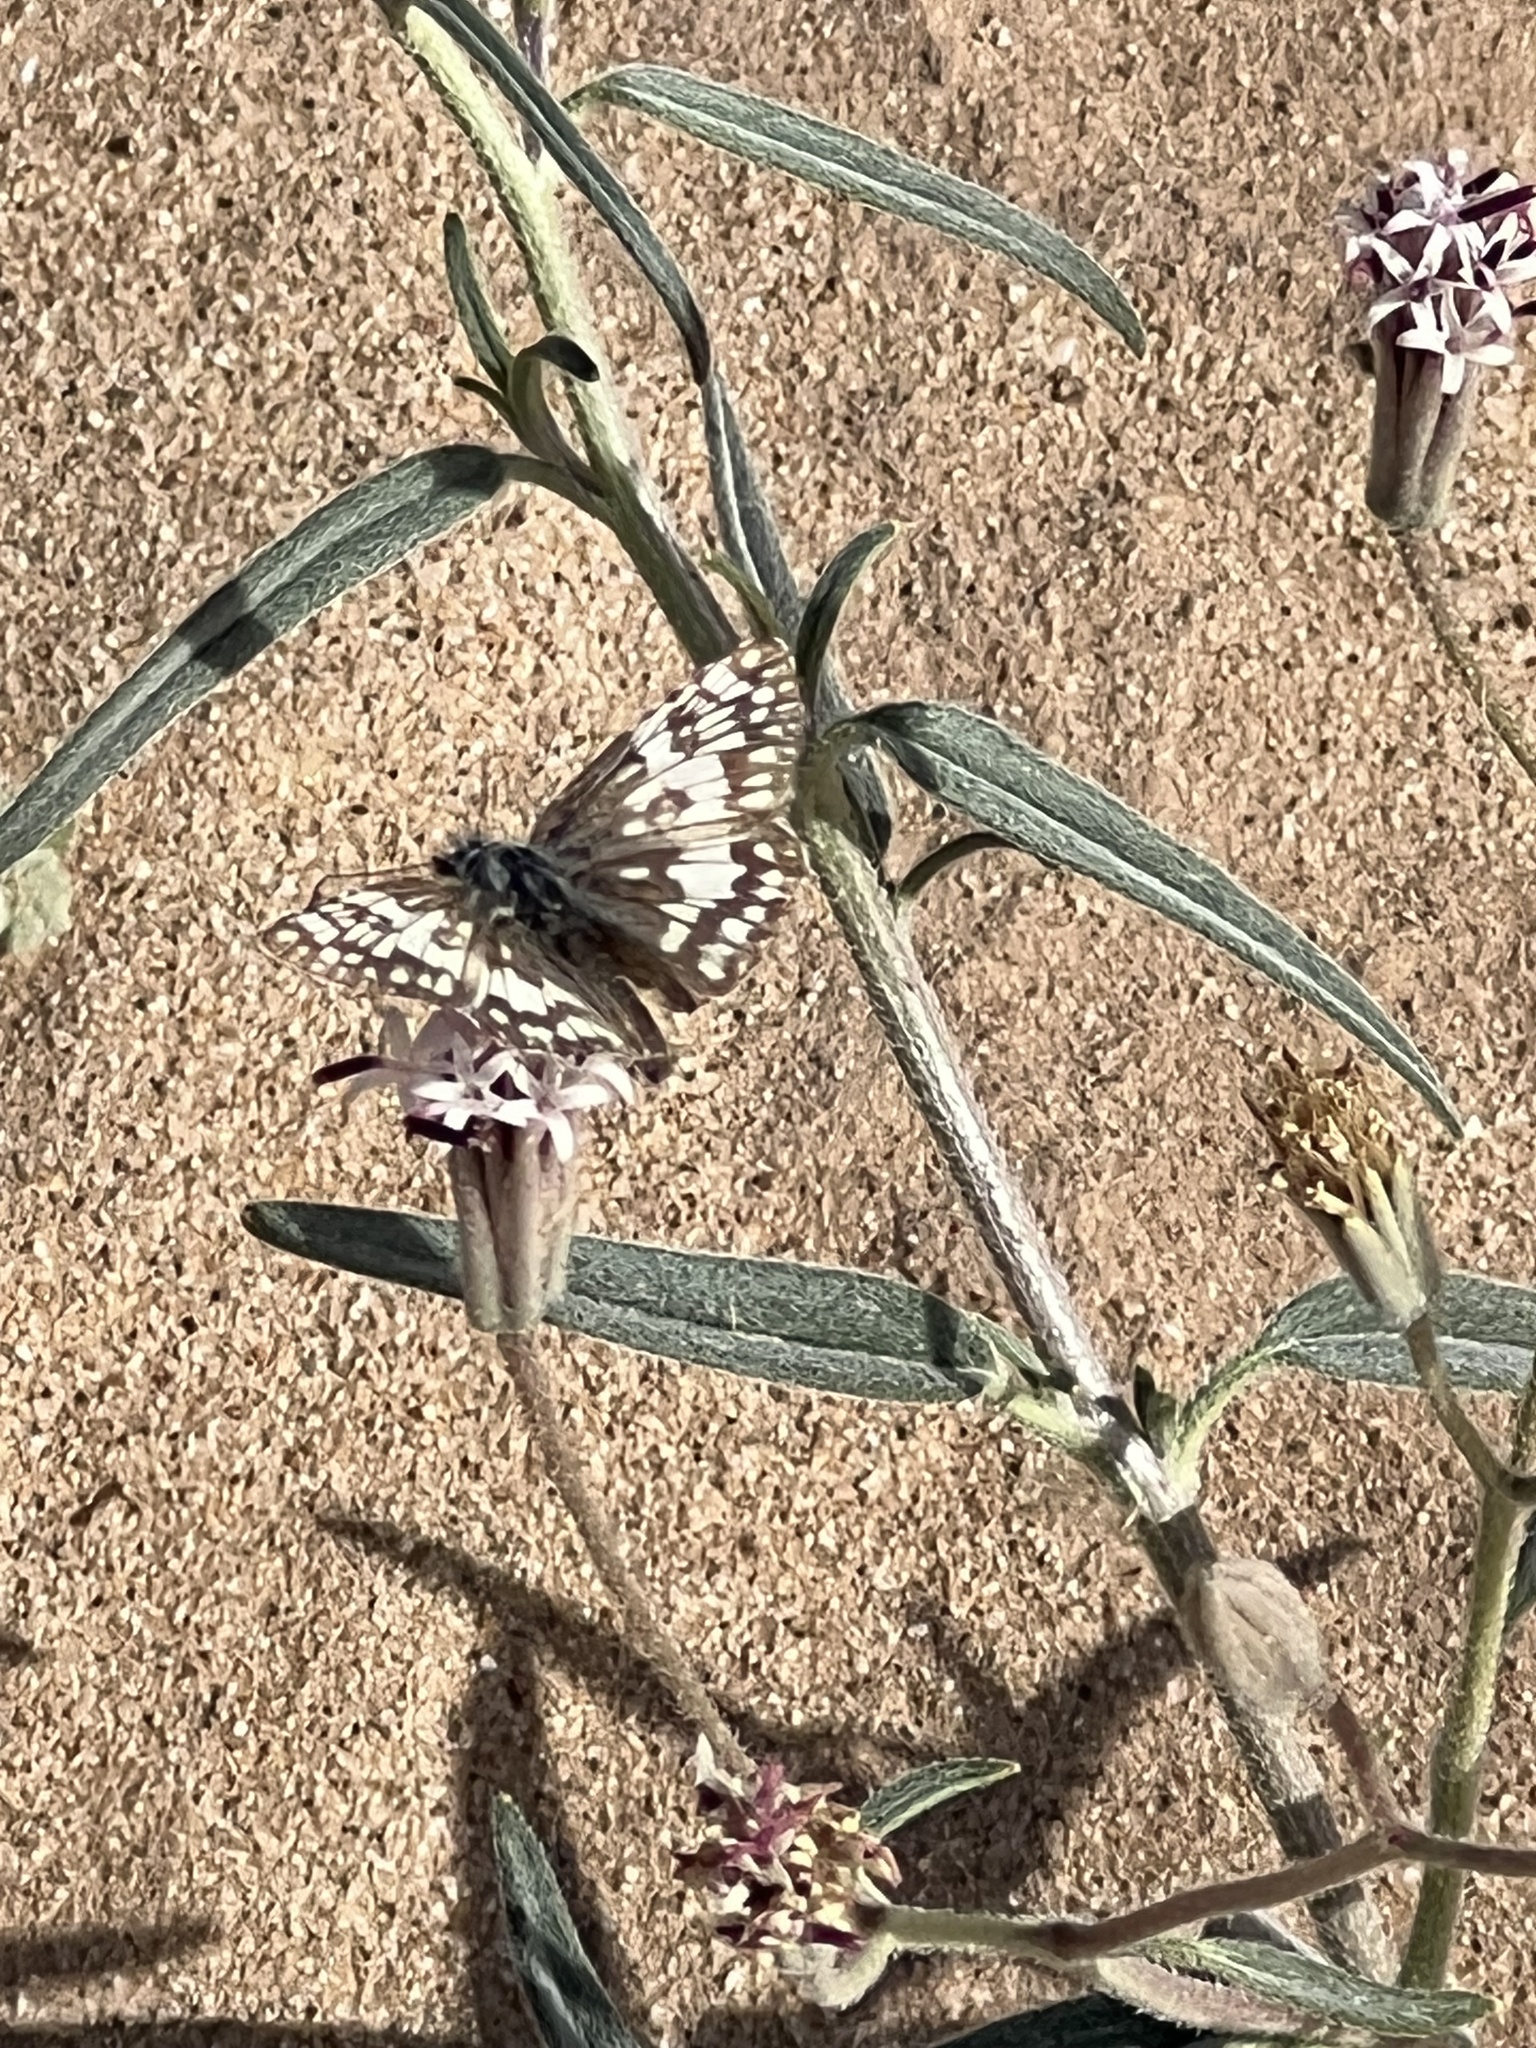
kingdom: Animalia
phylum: Arthropoda
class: Insecta
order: Lepidoptera
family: Hesperiidae
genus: Burnsius
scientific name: Burnsius albezens
